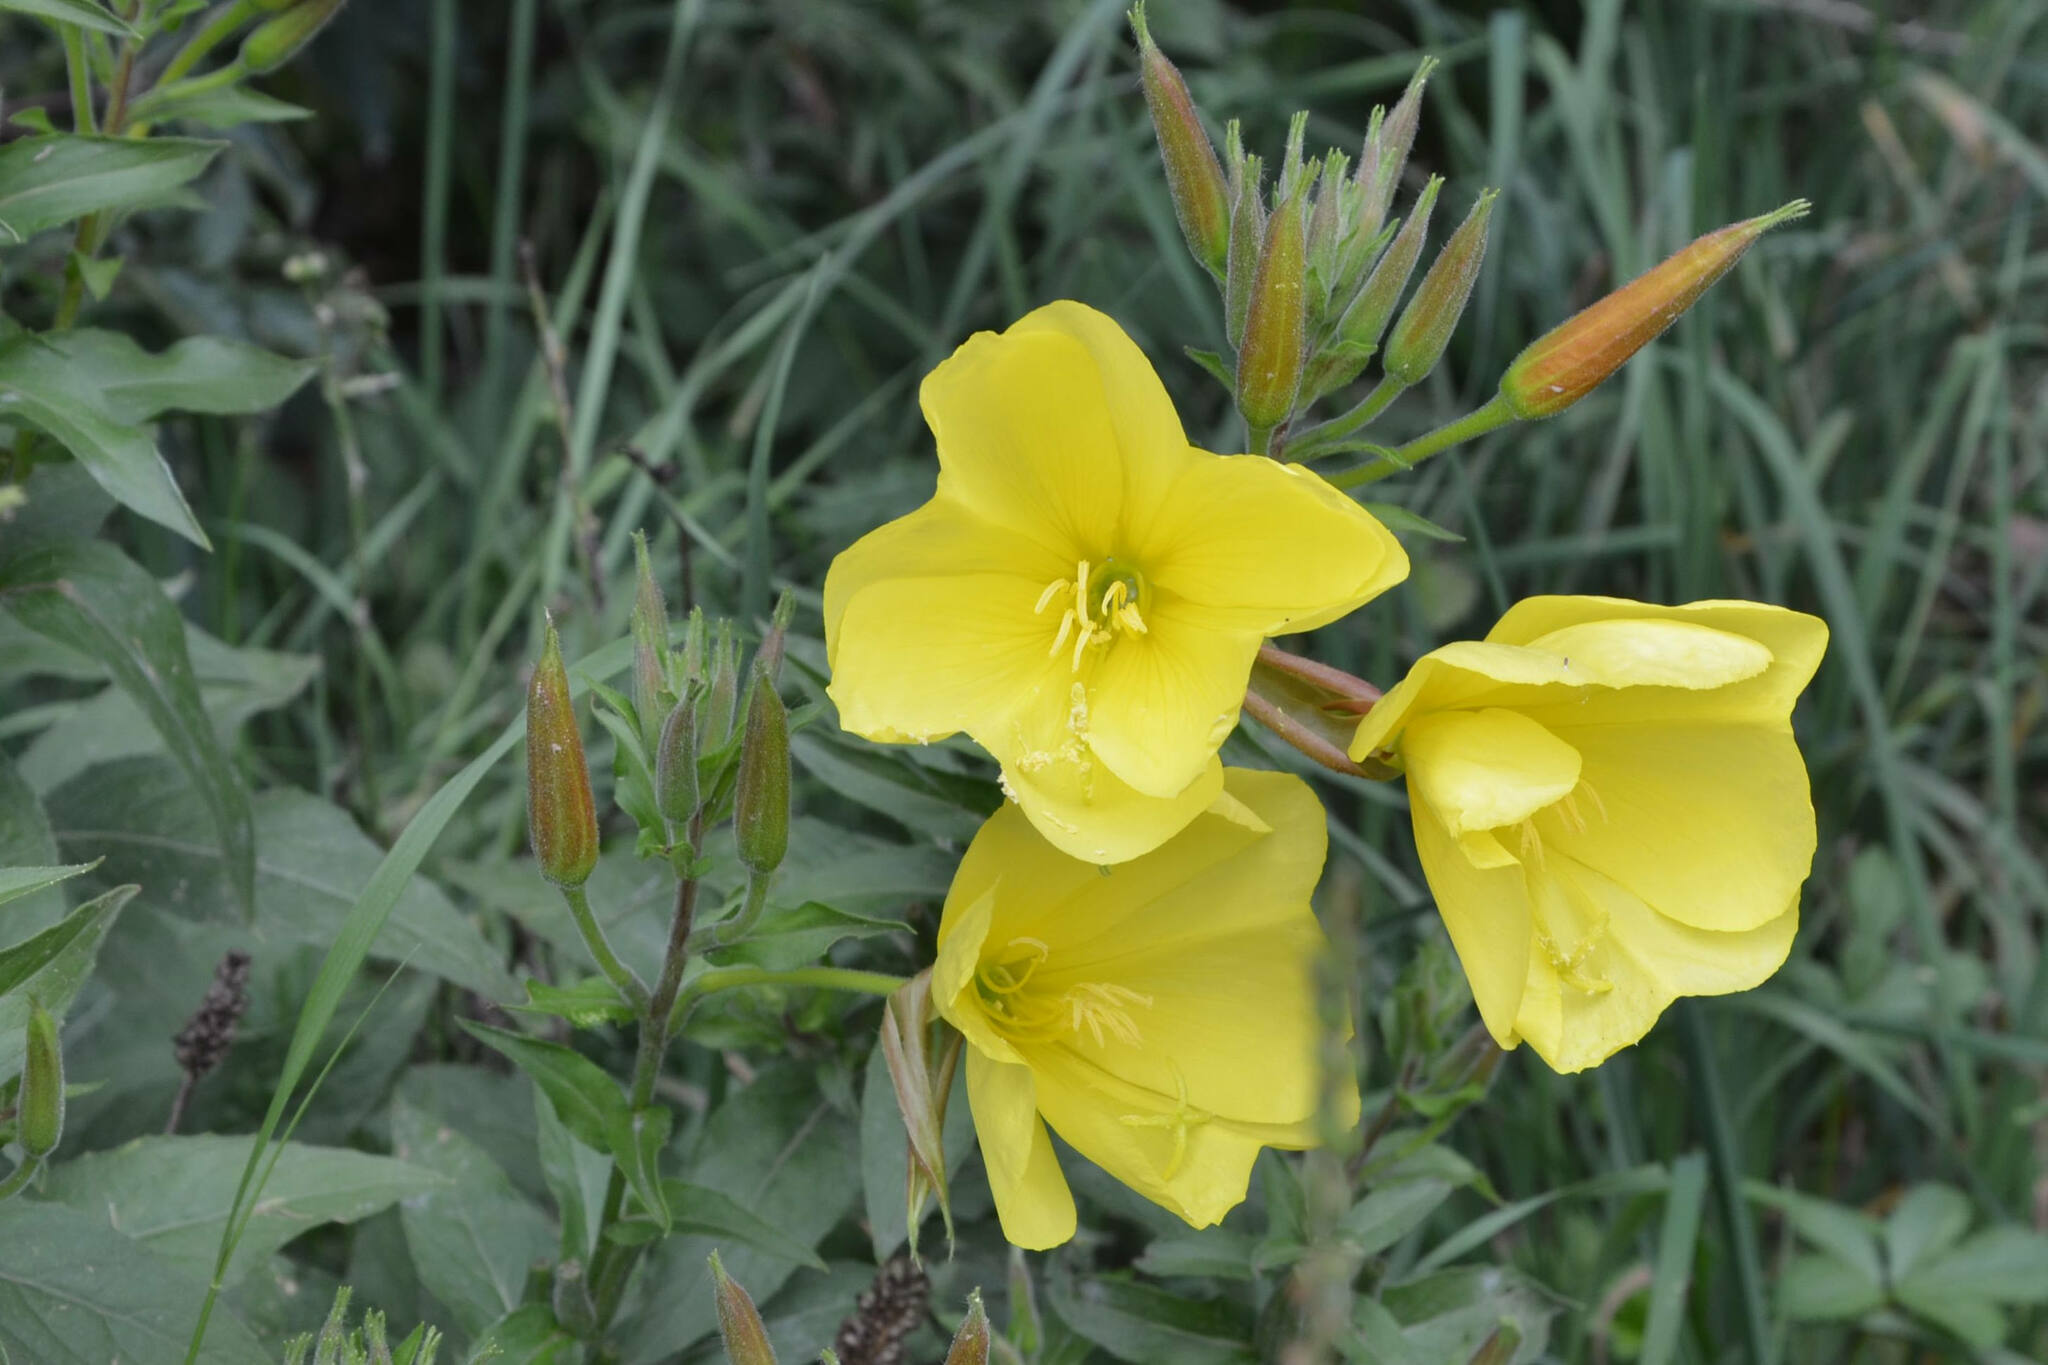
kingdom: Plantae
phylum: Tracheophyta
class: Magnoliopsida
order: Myrtales
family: Onagraceae
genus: Oenothera
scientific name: Oenothera glazioviana
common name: Large-flowered evening-primrose
